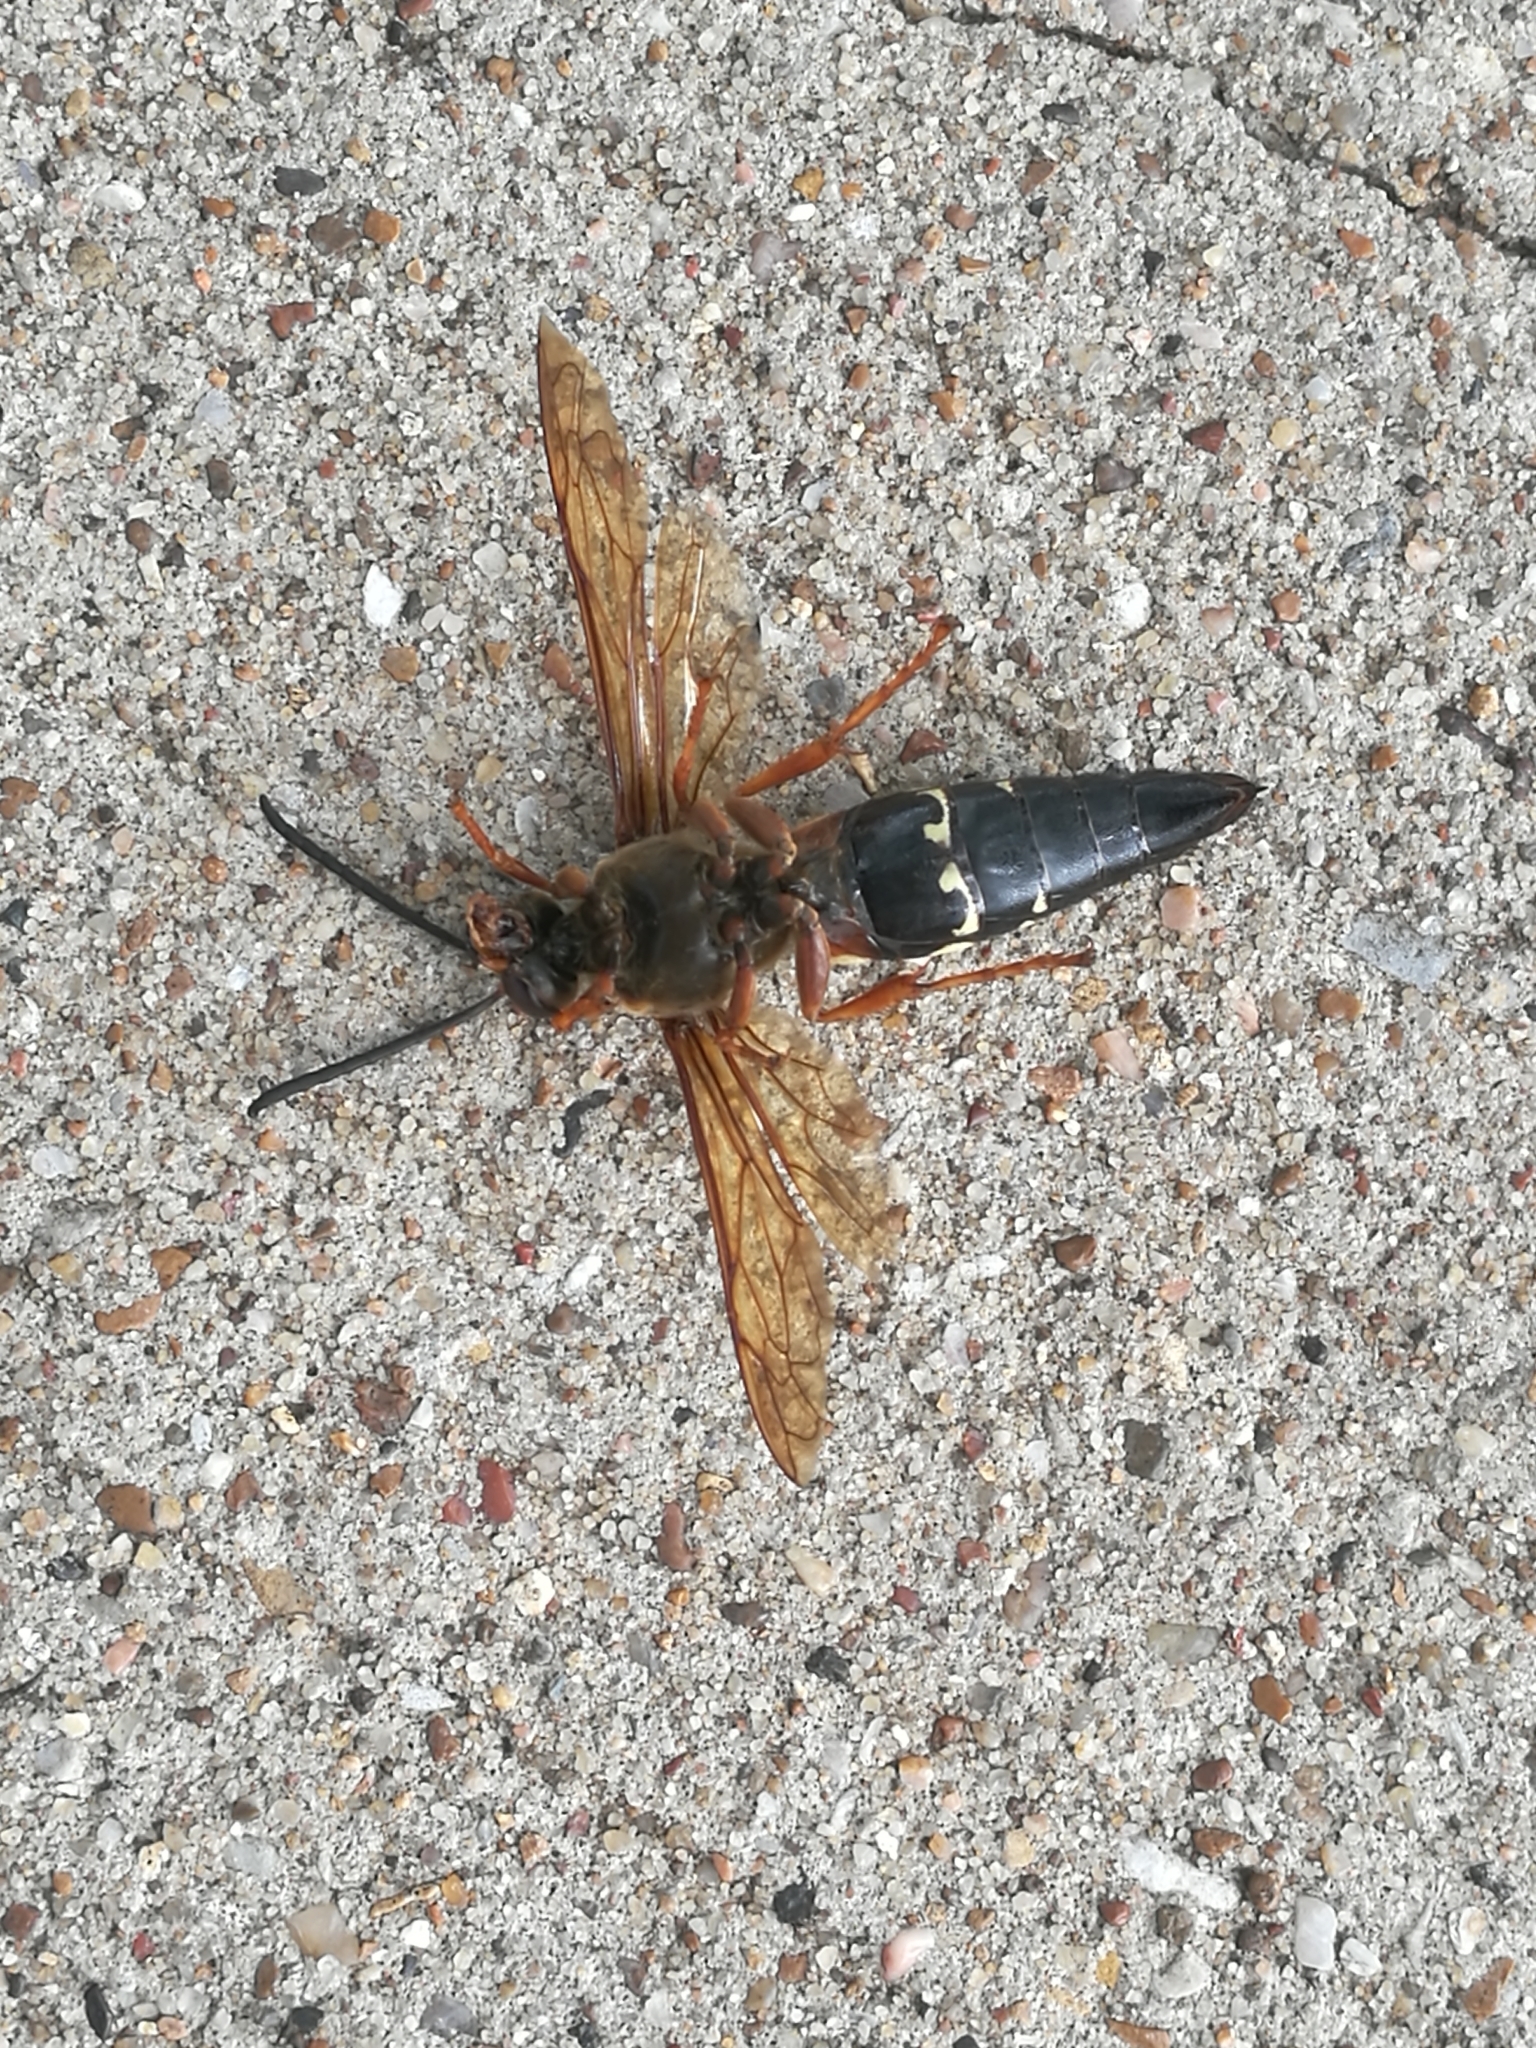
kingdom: Animalia
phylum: Arthropoda
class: Insecta
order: Hymenoptera
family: Crabronidae
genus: Sphecius
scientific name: Sphecius speciosus
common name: Cicada killer
